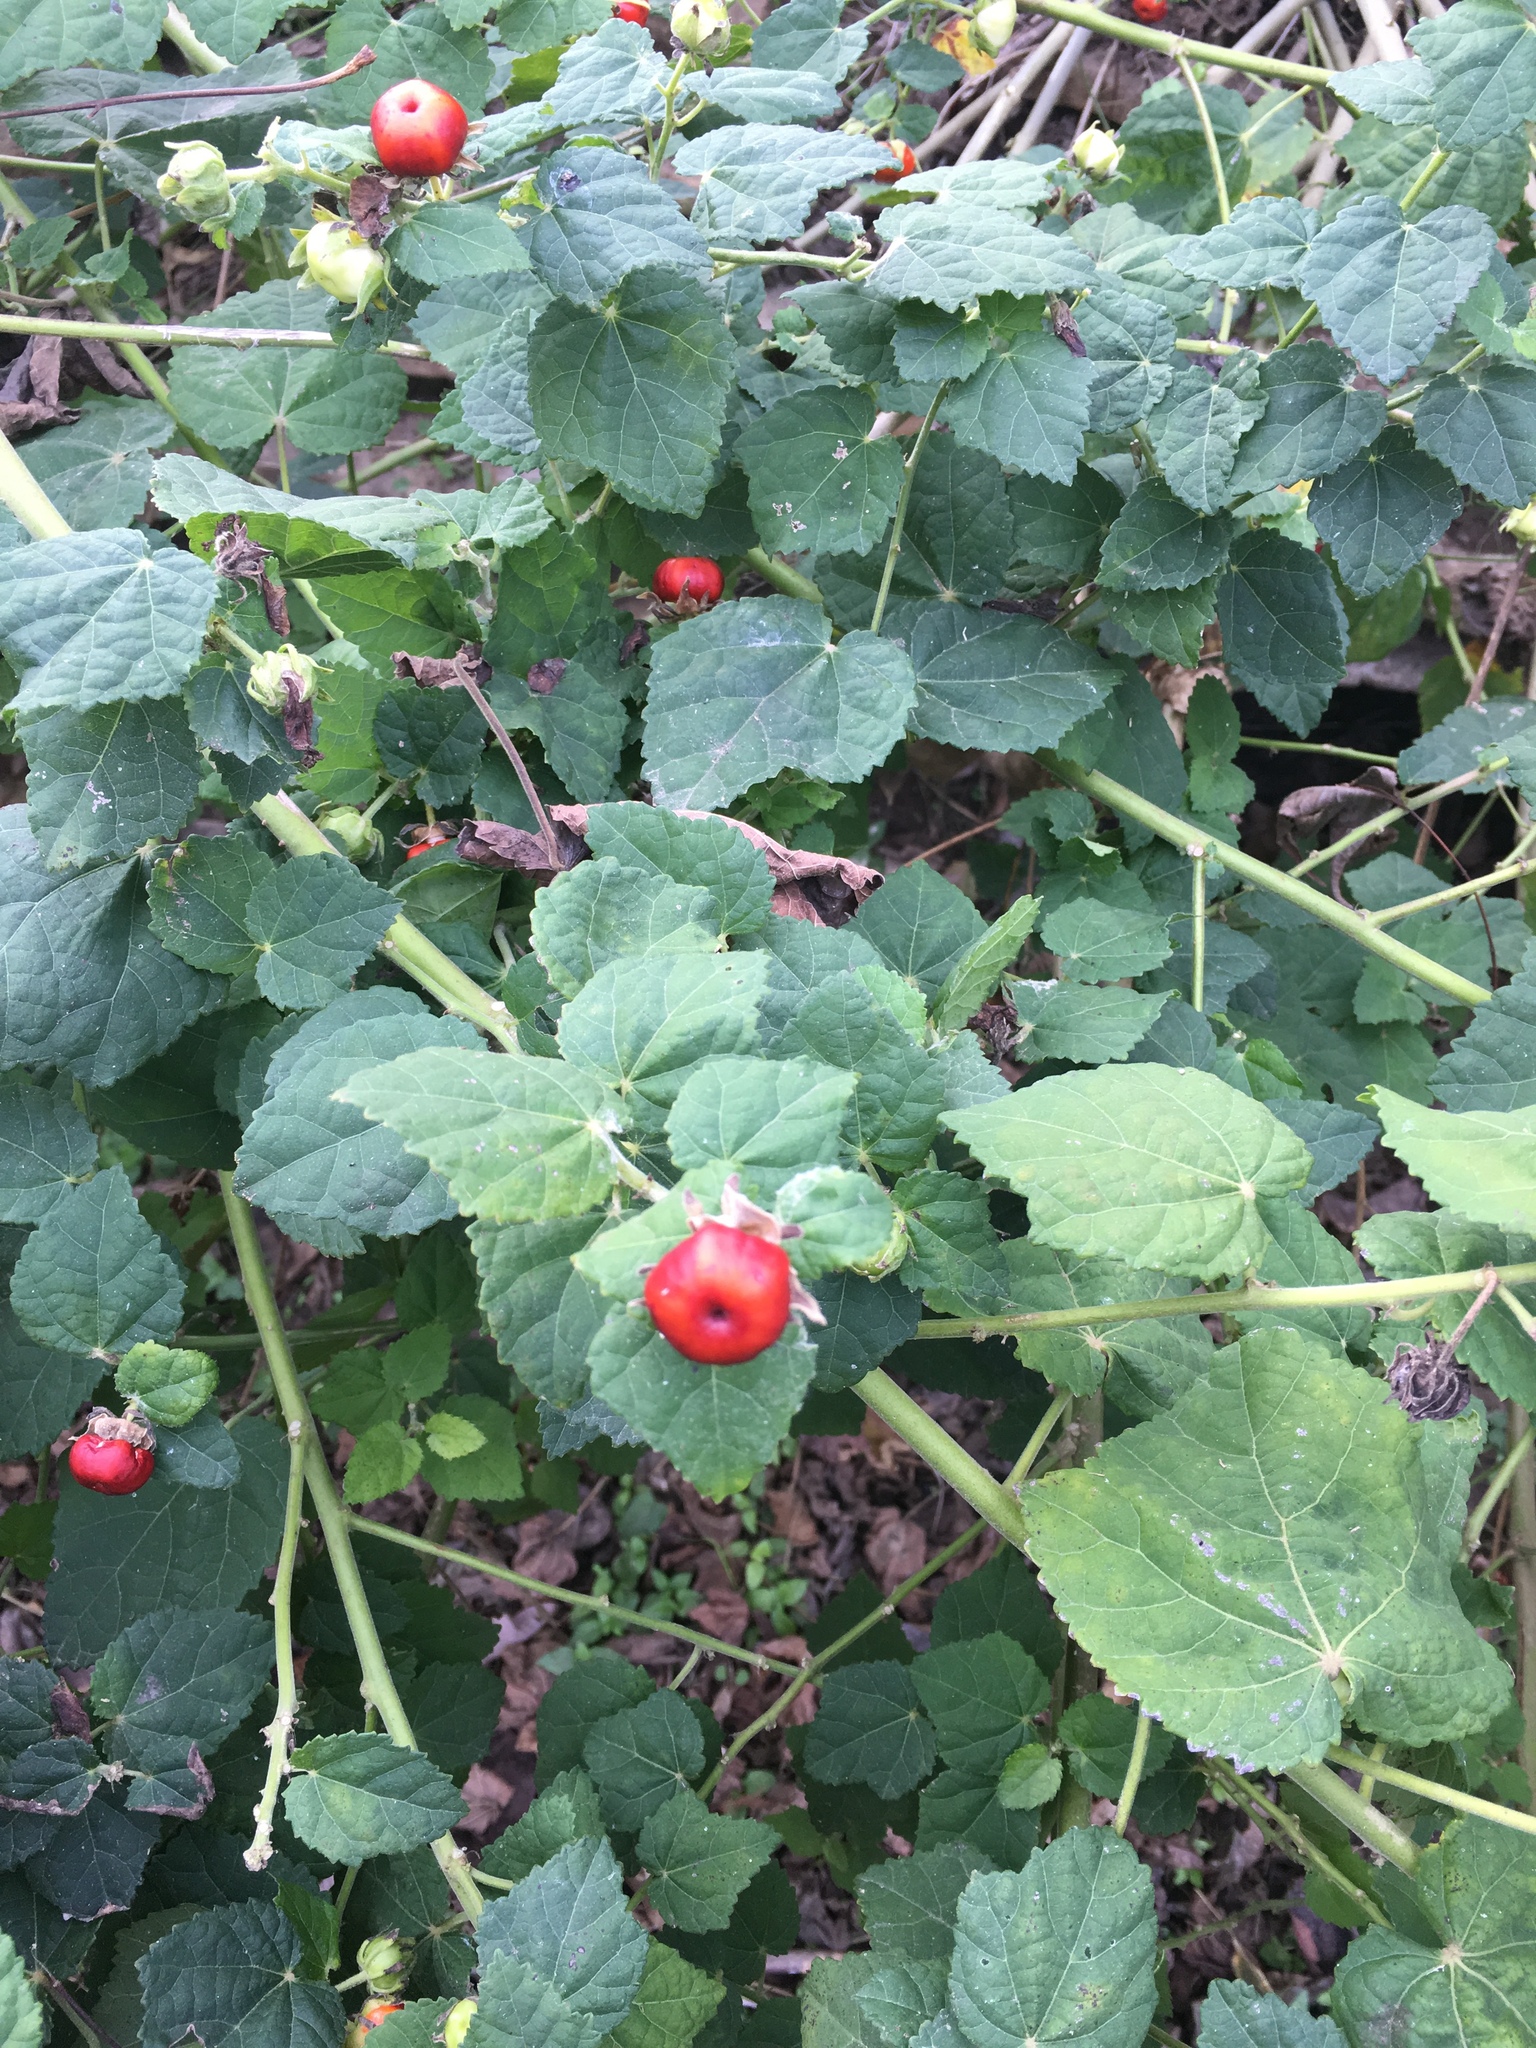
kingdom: Plantae
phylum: Tracheophyta
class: Magnoliopsida
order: Malvales
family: Malvaceae
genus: Malvaviscus
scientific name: Malvaviscus arboreus
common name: Wax mallow
